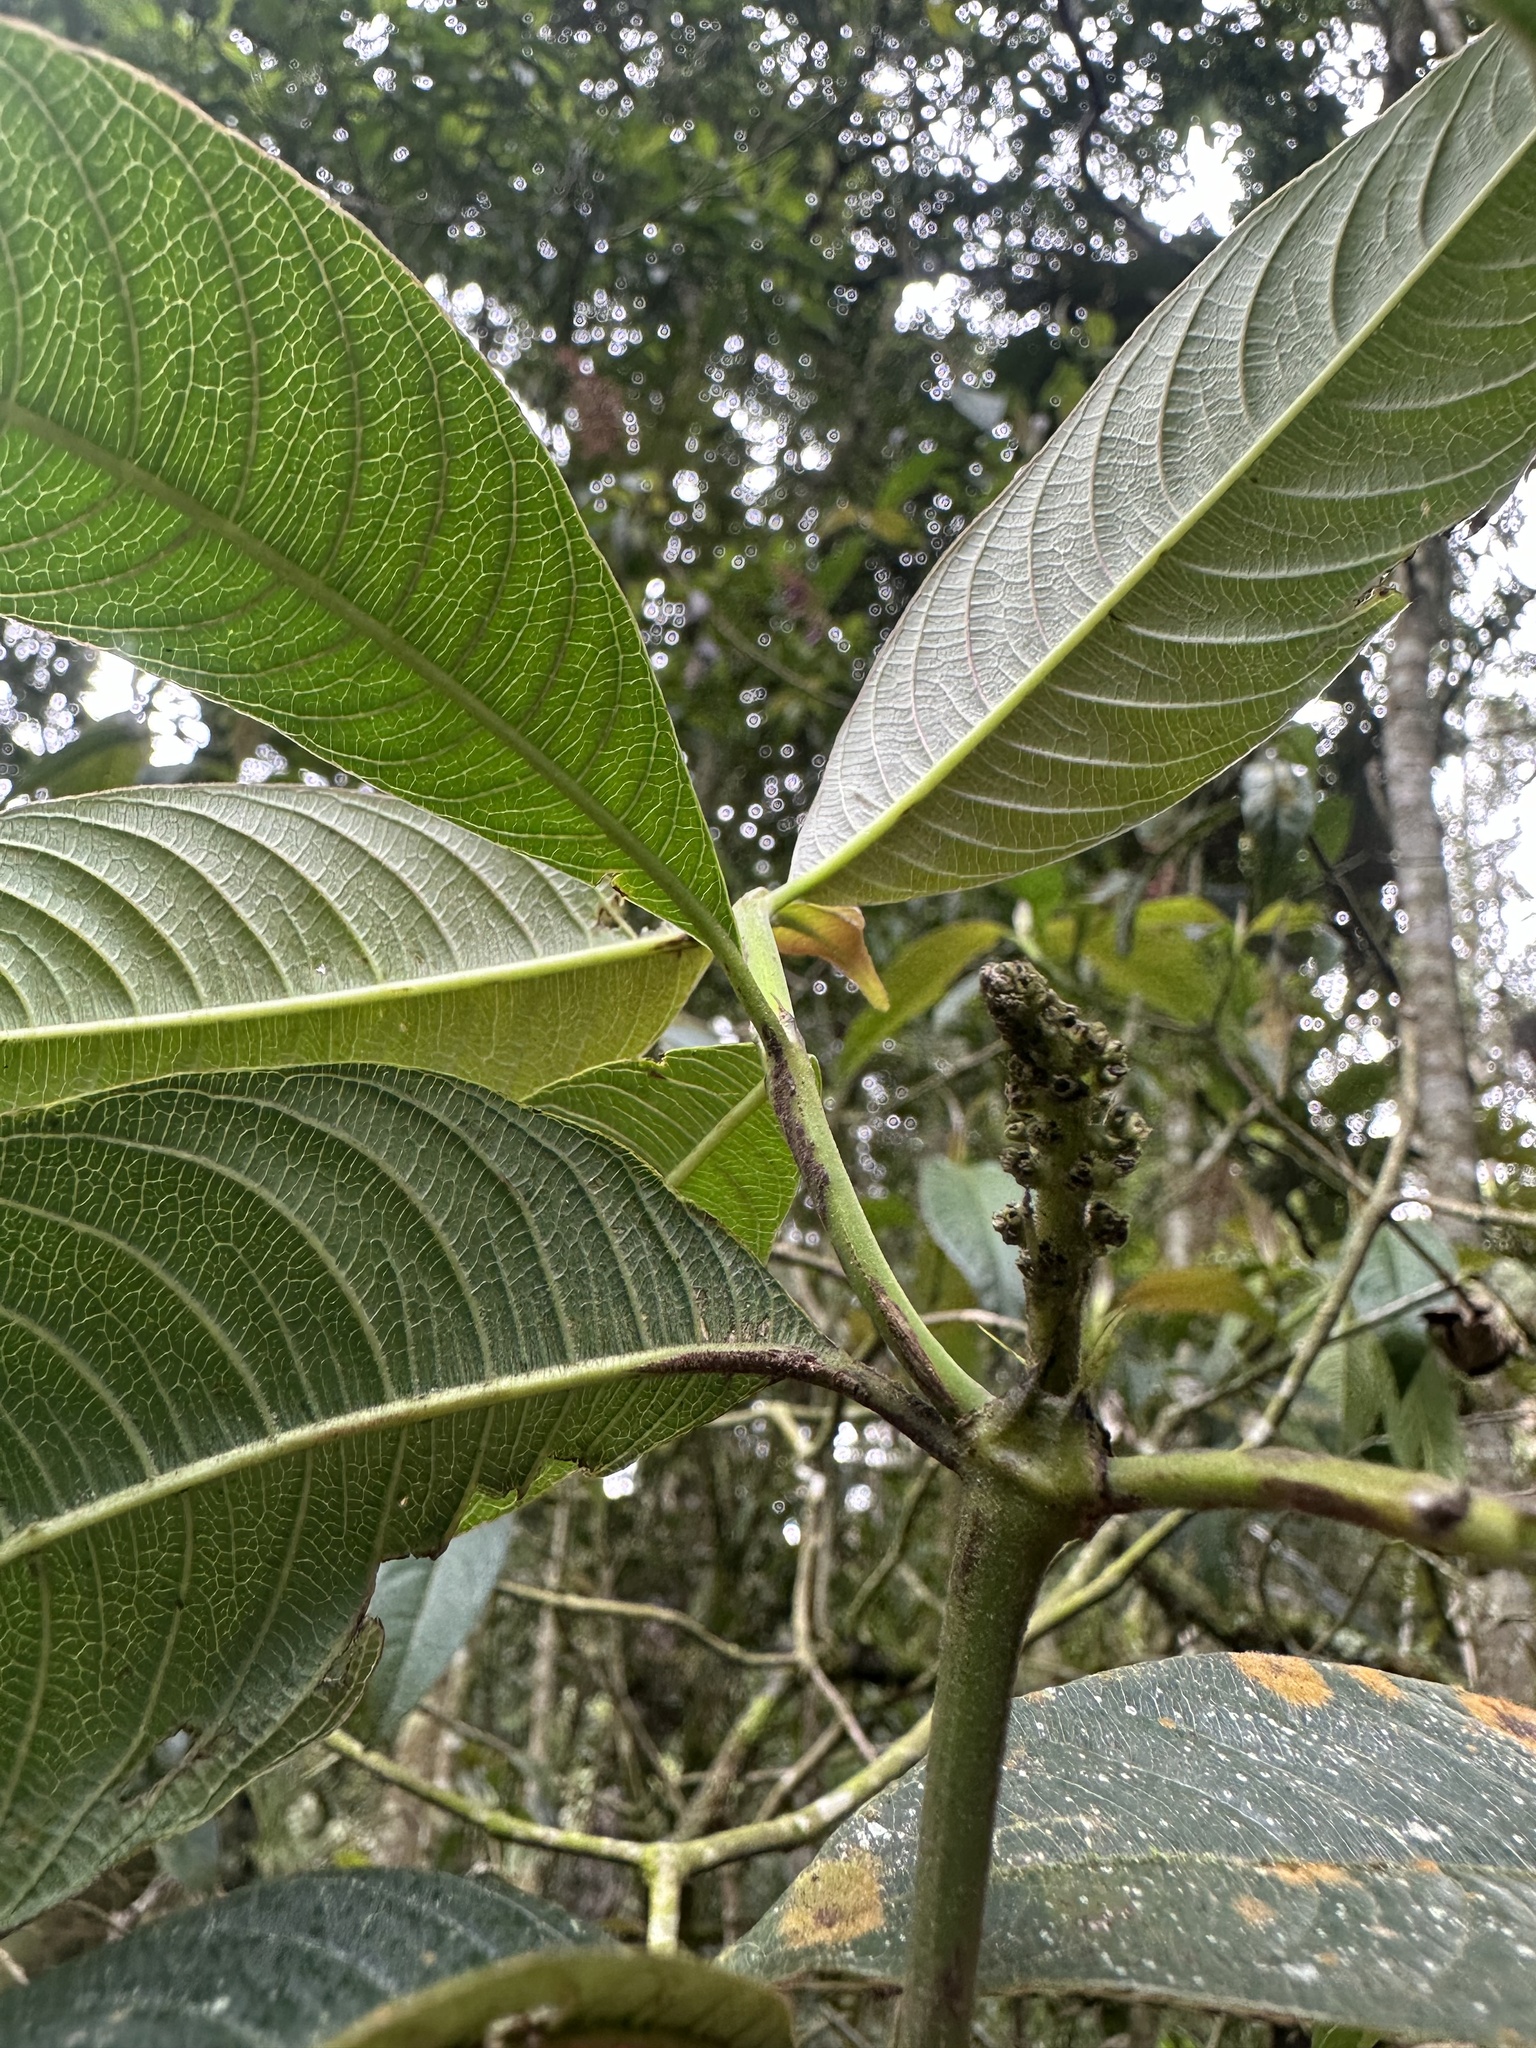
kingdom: Plantae
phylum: Tracheophyta
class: Magnoliopsida
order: Gentianales
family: Rubiaceae
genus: Palicourea
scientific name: Palicourea angustifolia
